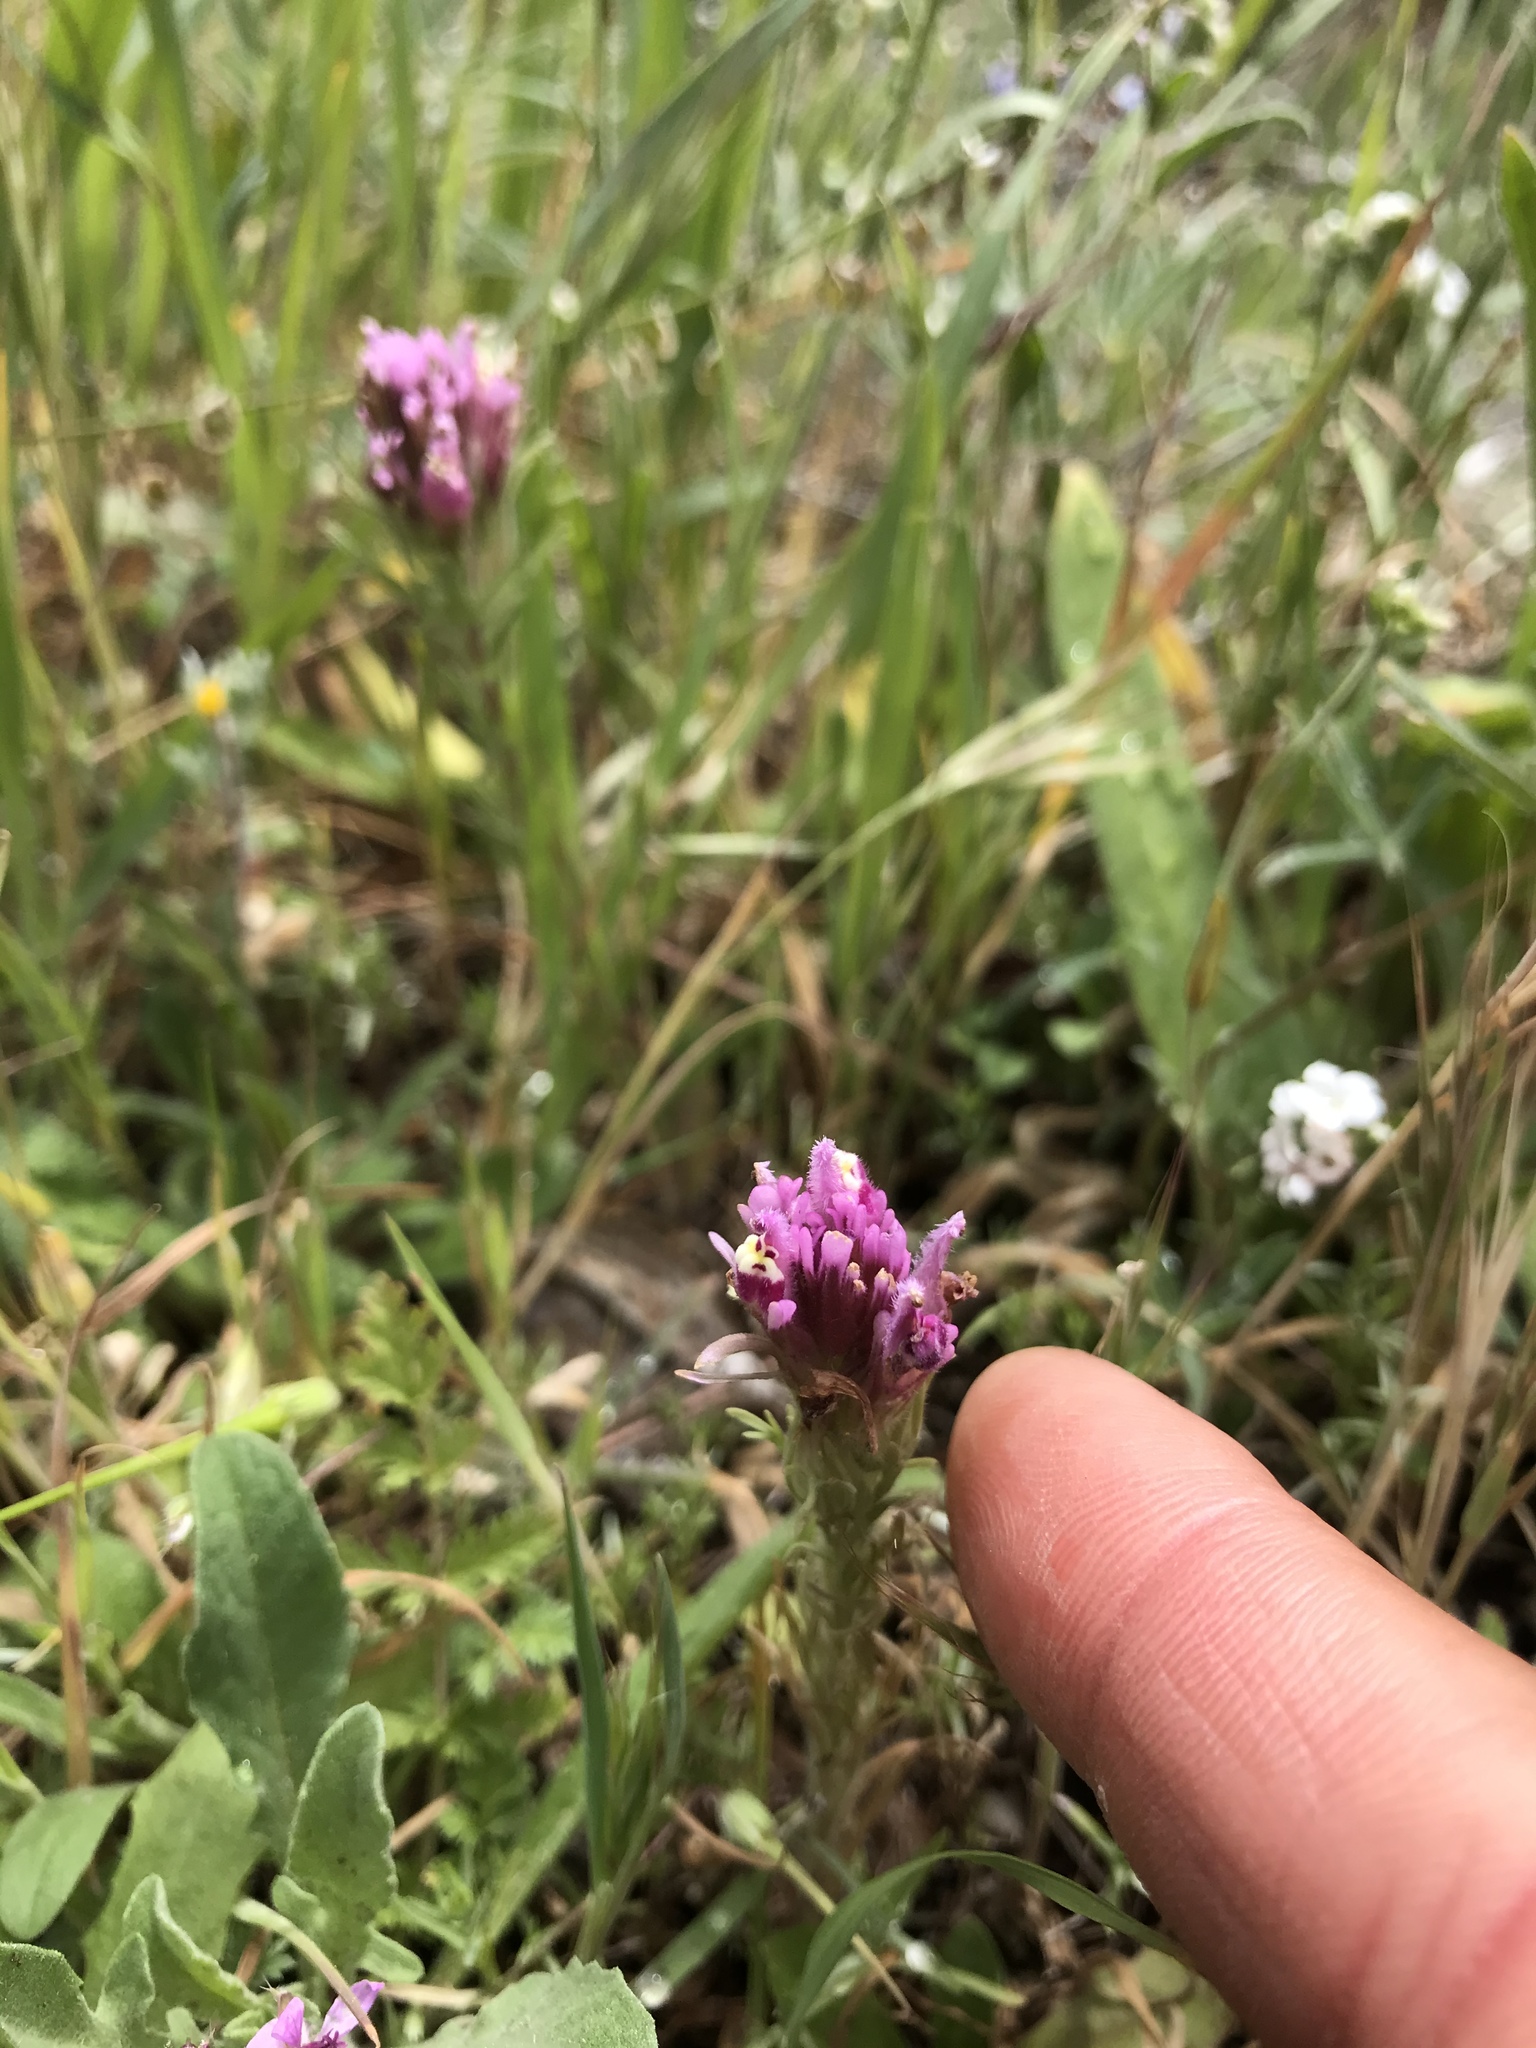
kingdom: Plantae
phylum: Tracheophyta
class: Magnoliopsida
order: Lamiales
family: Orobanchaceae
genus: Castilleja
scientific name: Castilleja exserta
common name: Purple owl-clover
